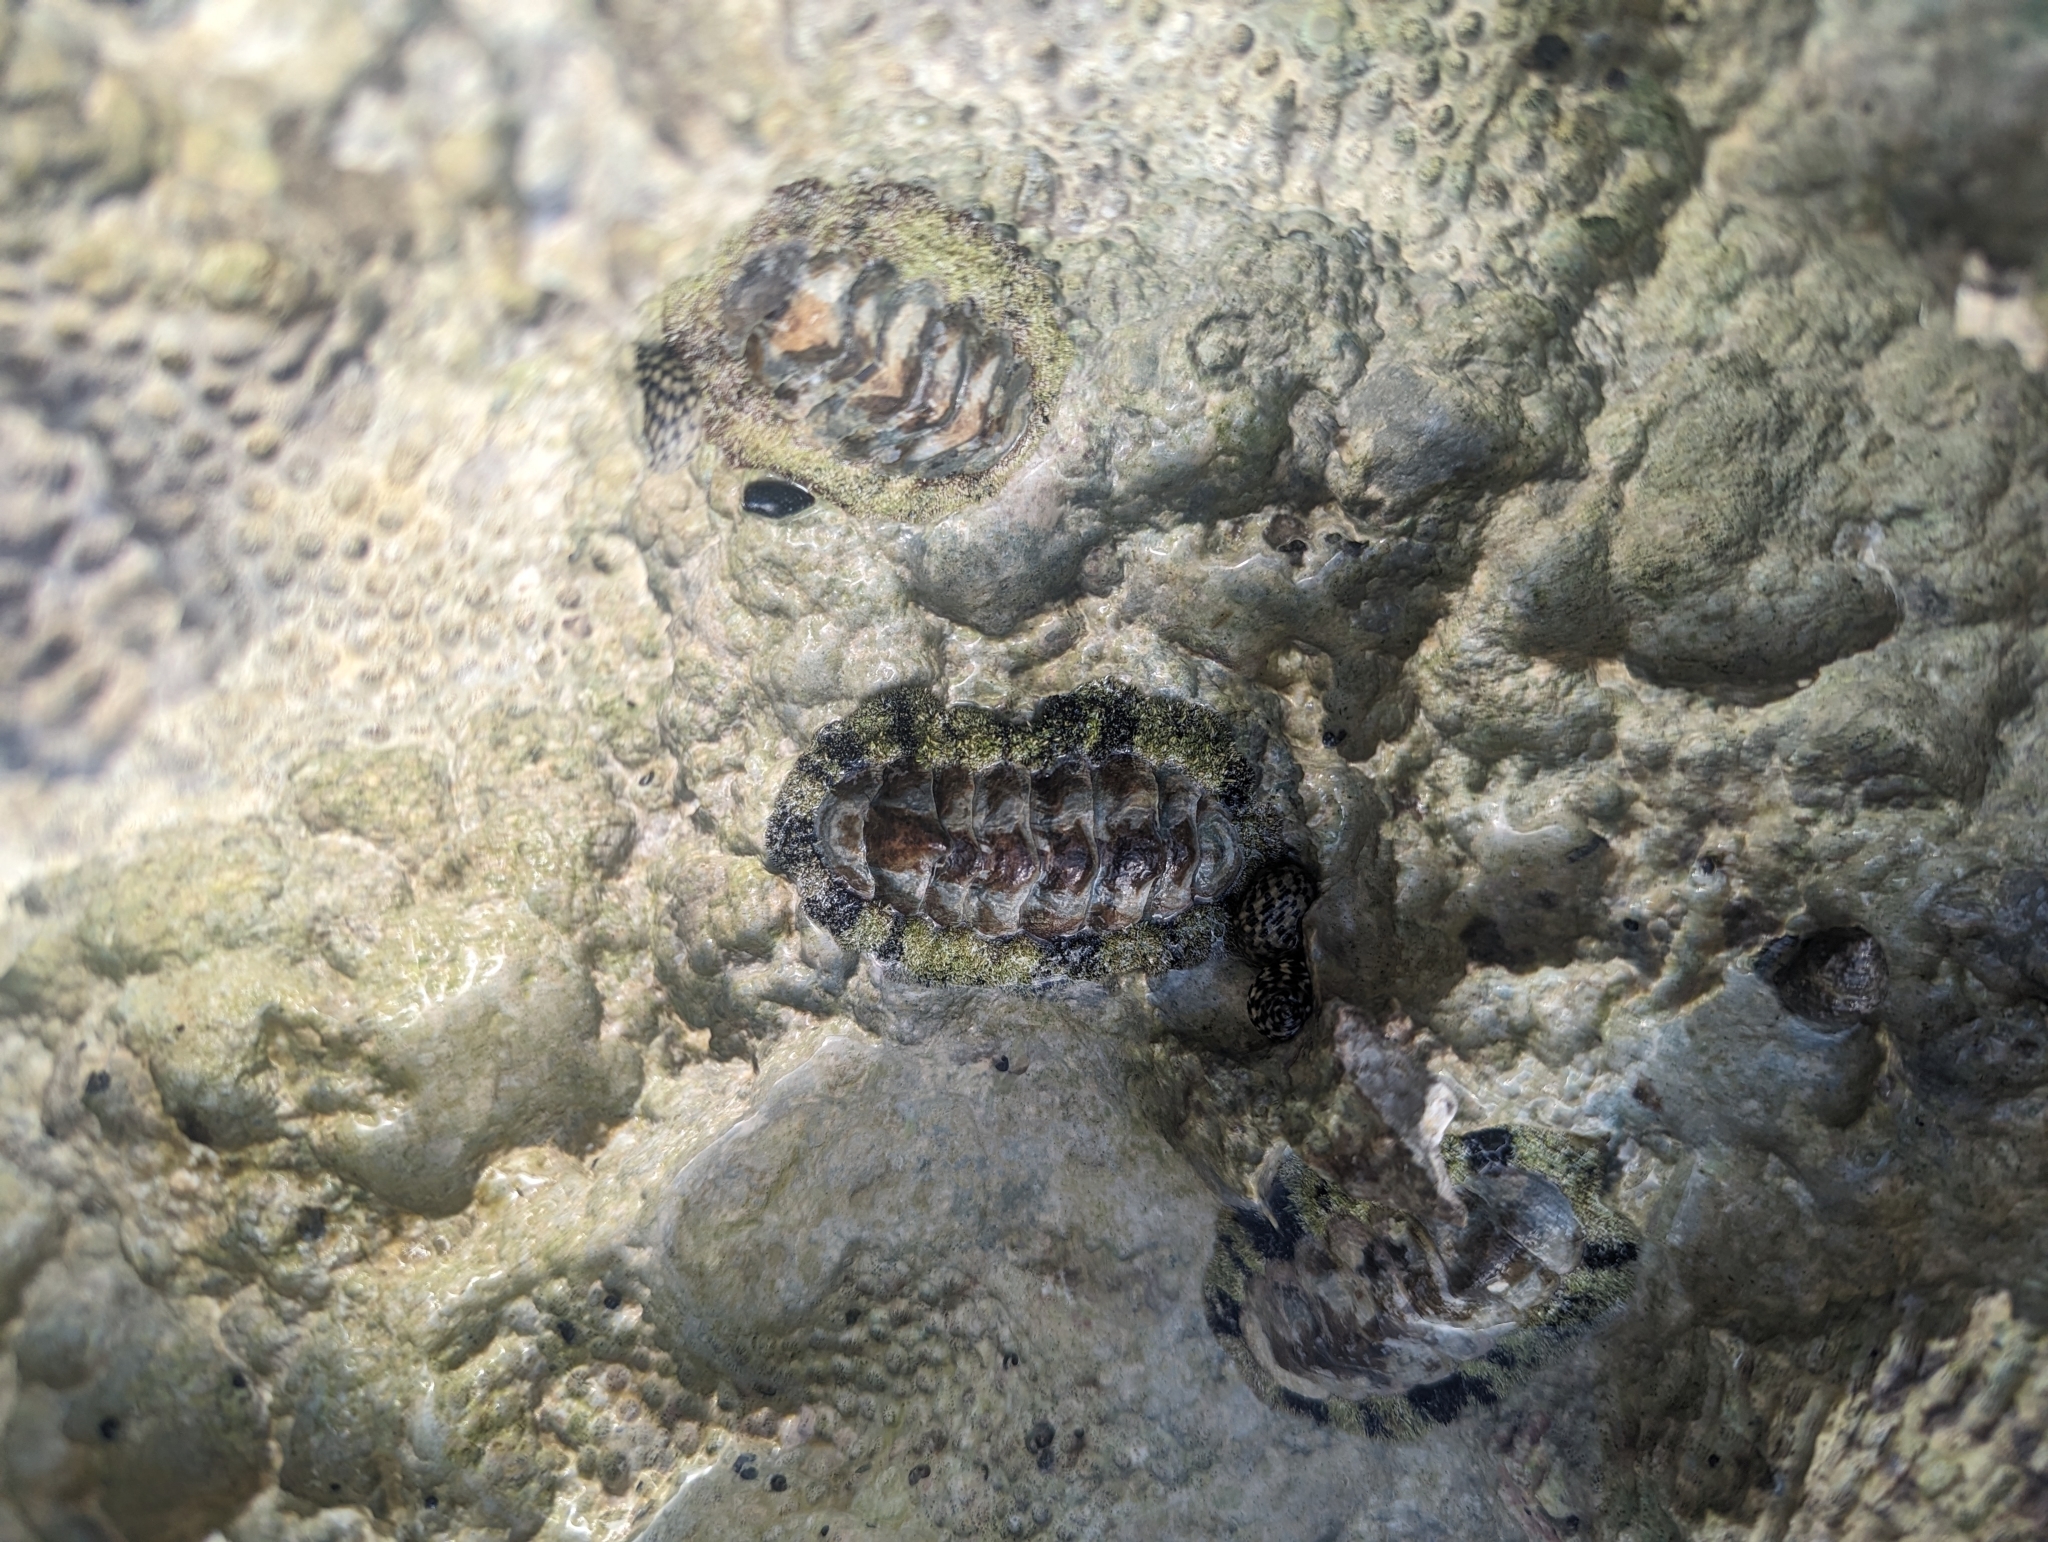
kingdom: Animalia
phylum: Mollusca
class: Polyplacophora
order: Chitonida
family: Chitonidae
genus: Acanthopleura
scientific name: Acanthopleura granulata
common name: West indian fuzzy chiton
